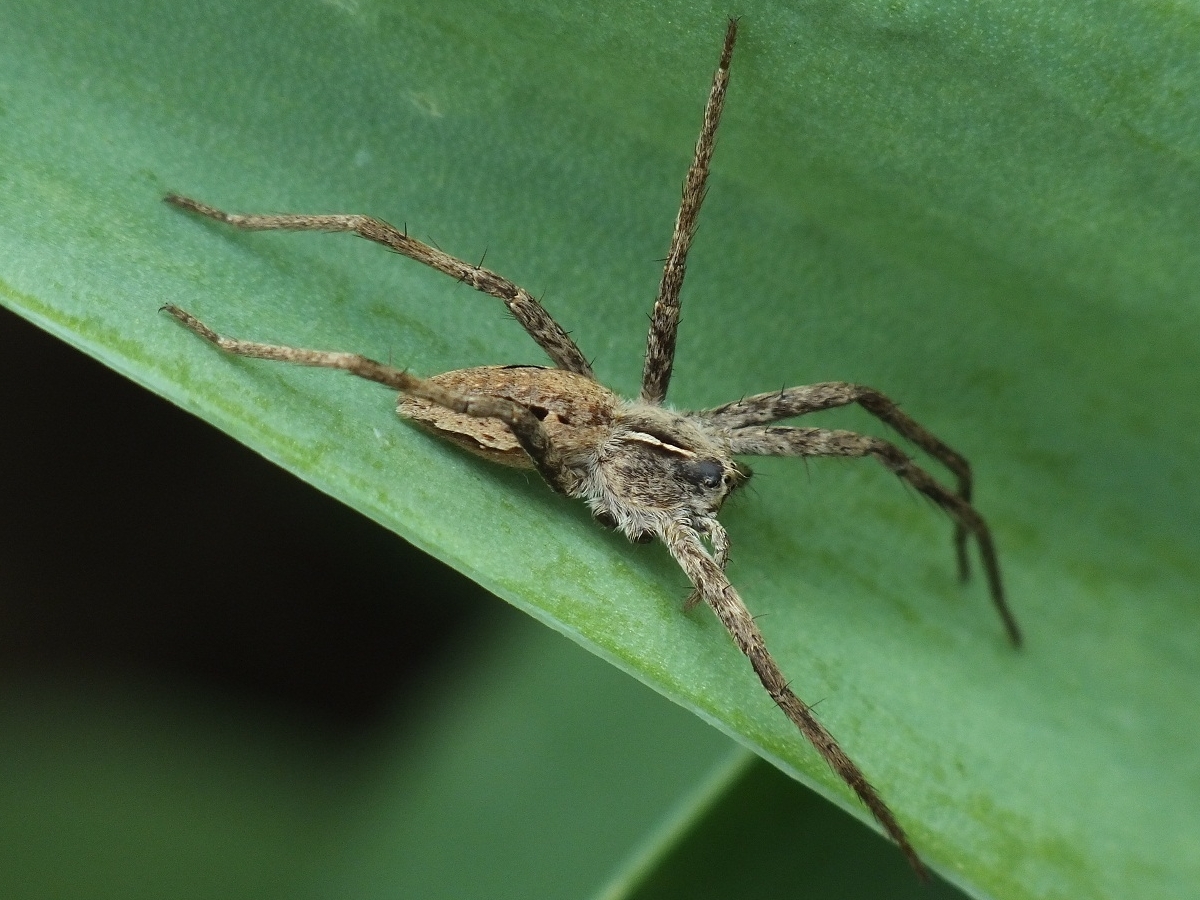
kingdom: Animalia
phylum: Arthropoda
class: Arachnida
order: Araneae
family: Pisauridae
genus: Pisaura
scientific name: Pisaura
